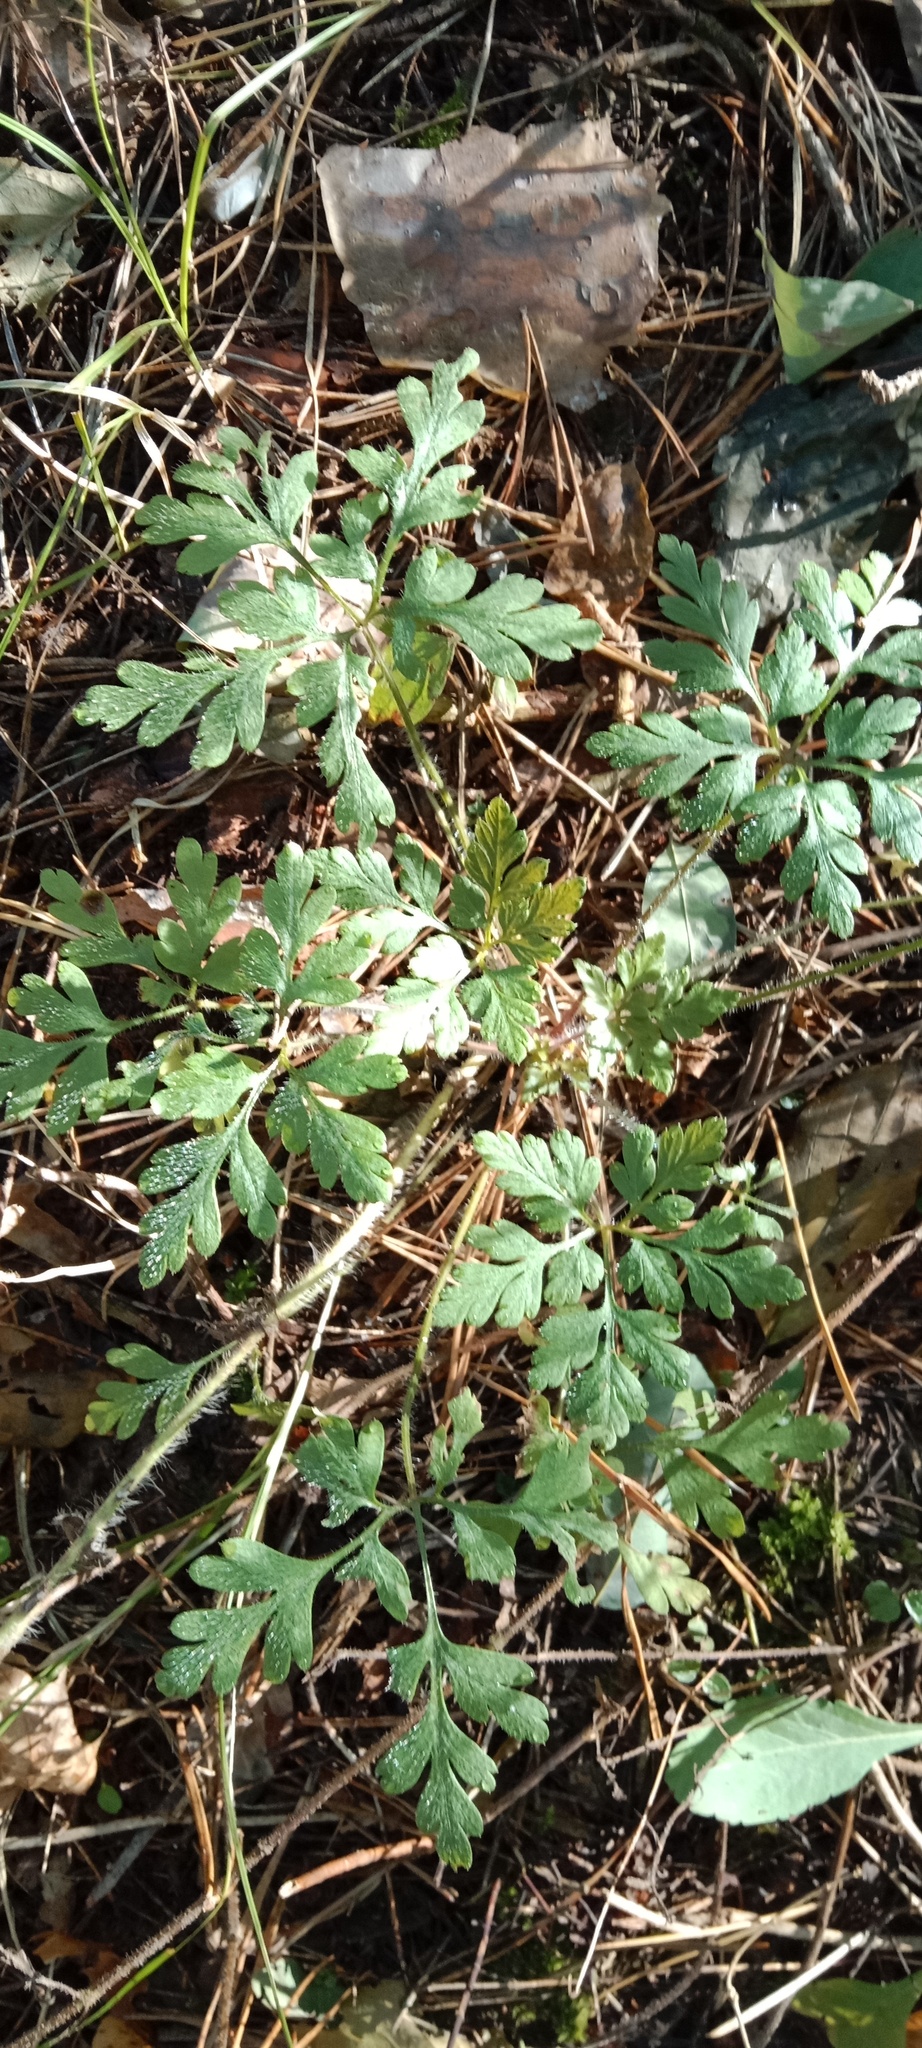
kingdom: Plantae
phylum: Tracheophyta
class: Magnoliopsida
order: Geraniales
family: Geraniaceae
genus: Geranium
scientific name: Geranium robertianum
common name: Herb-robert
